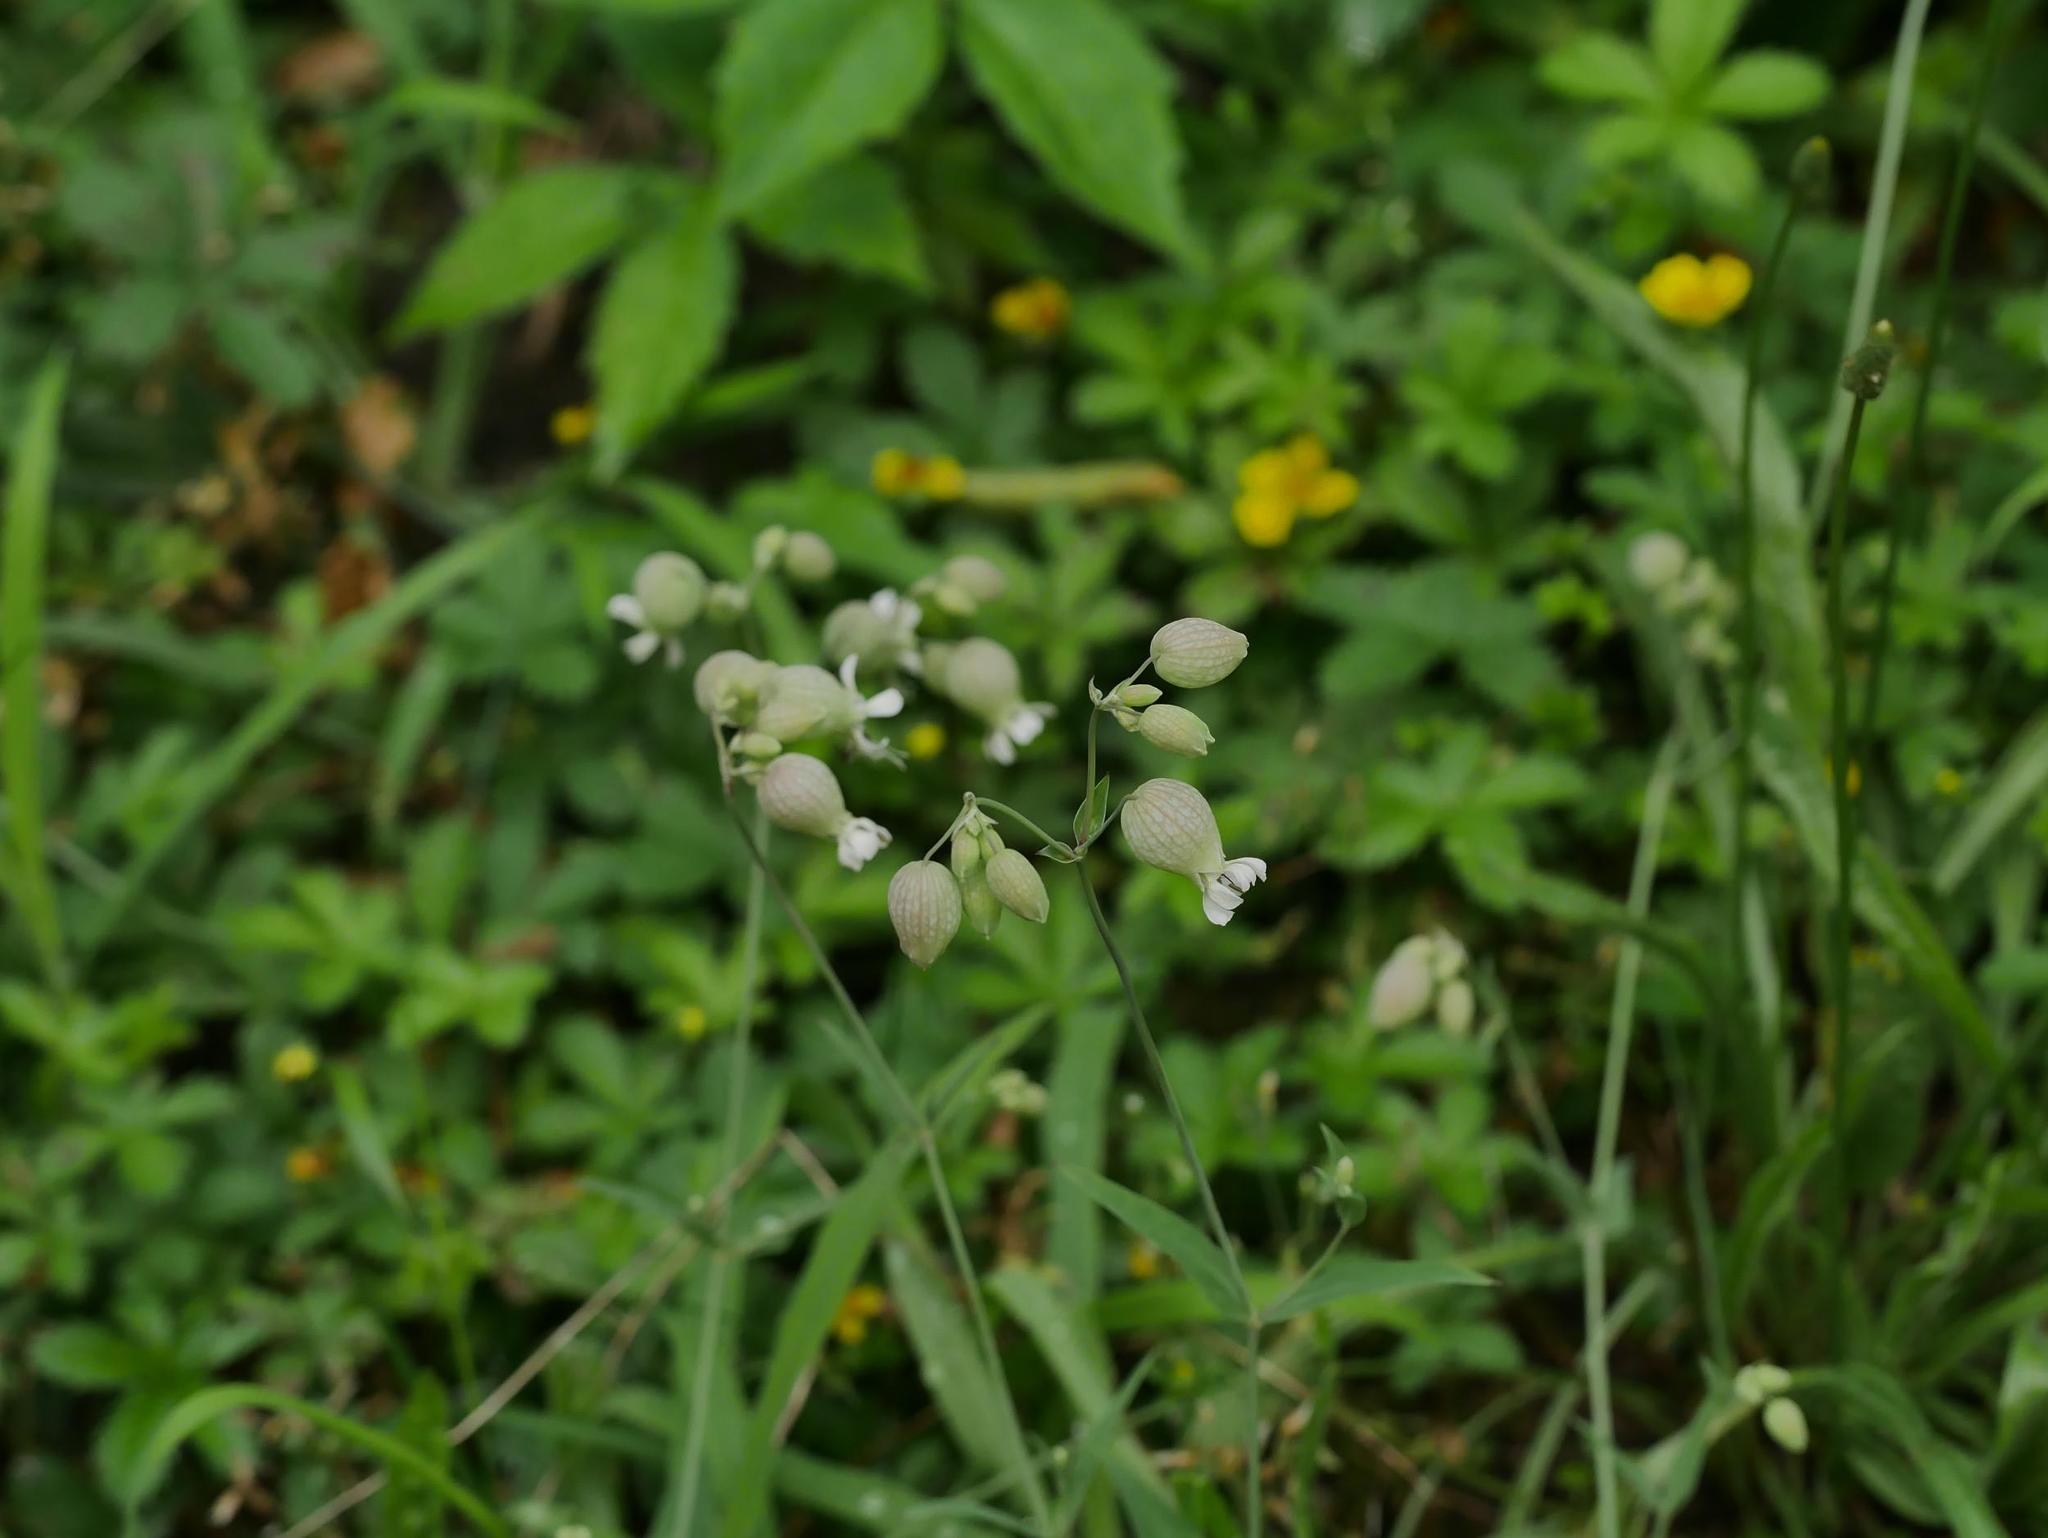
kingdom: Plantae
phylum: Tracheophyta
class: Magnoliopsida
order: Caryophyllales
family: Caryophyllaceae
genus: Silene
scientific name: Silene vulgaris
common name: Bladder campion
